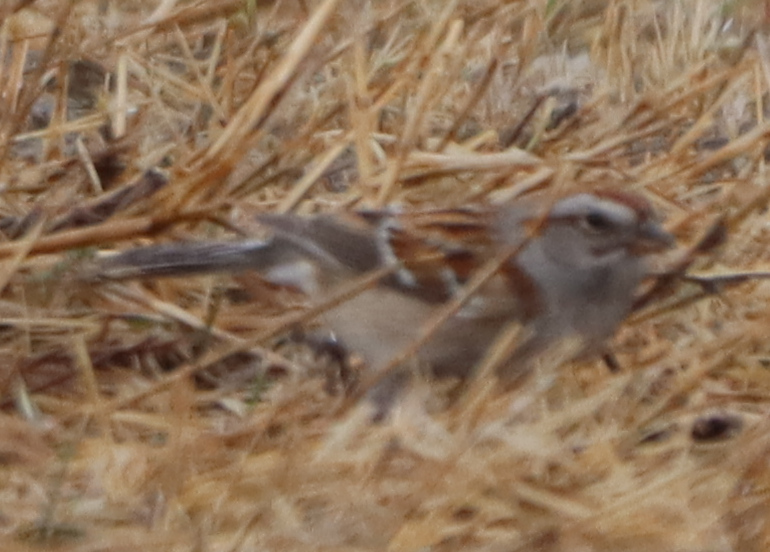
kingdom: Animalia
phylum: Chordata
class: Aves
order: Passeriformes
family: Passerellidae
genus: Spizelloides
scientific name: Spizelloides arborea
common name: American tree sparrow
